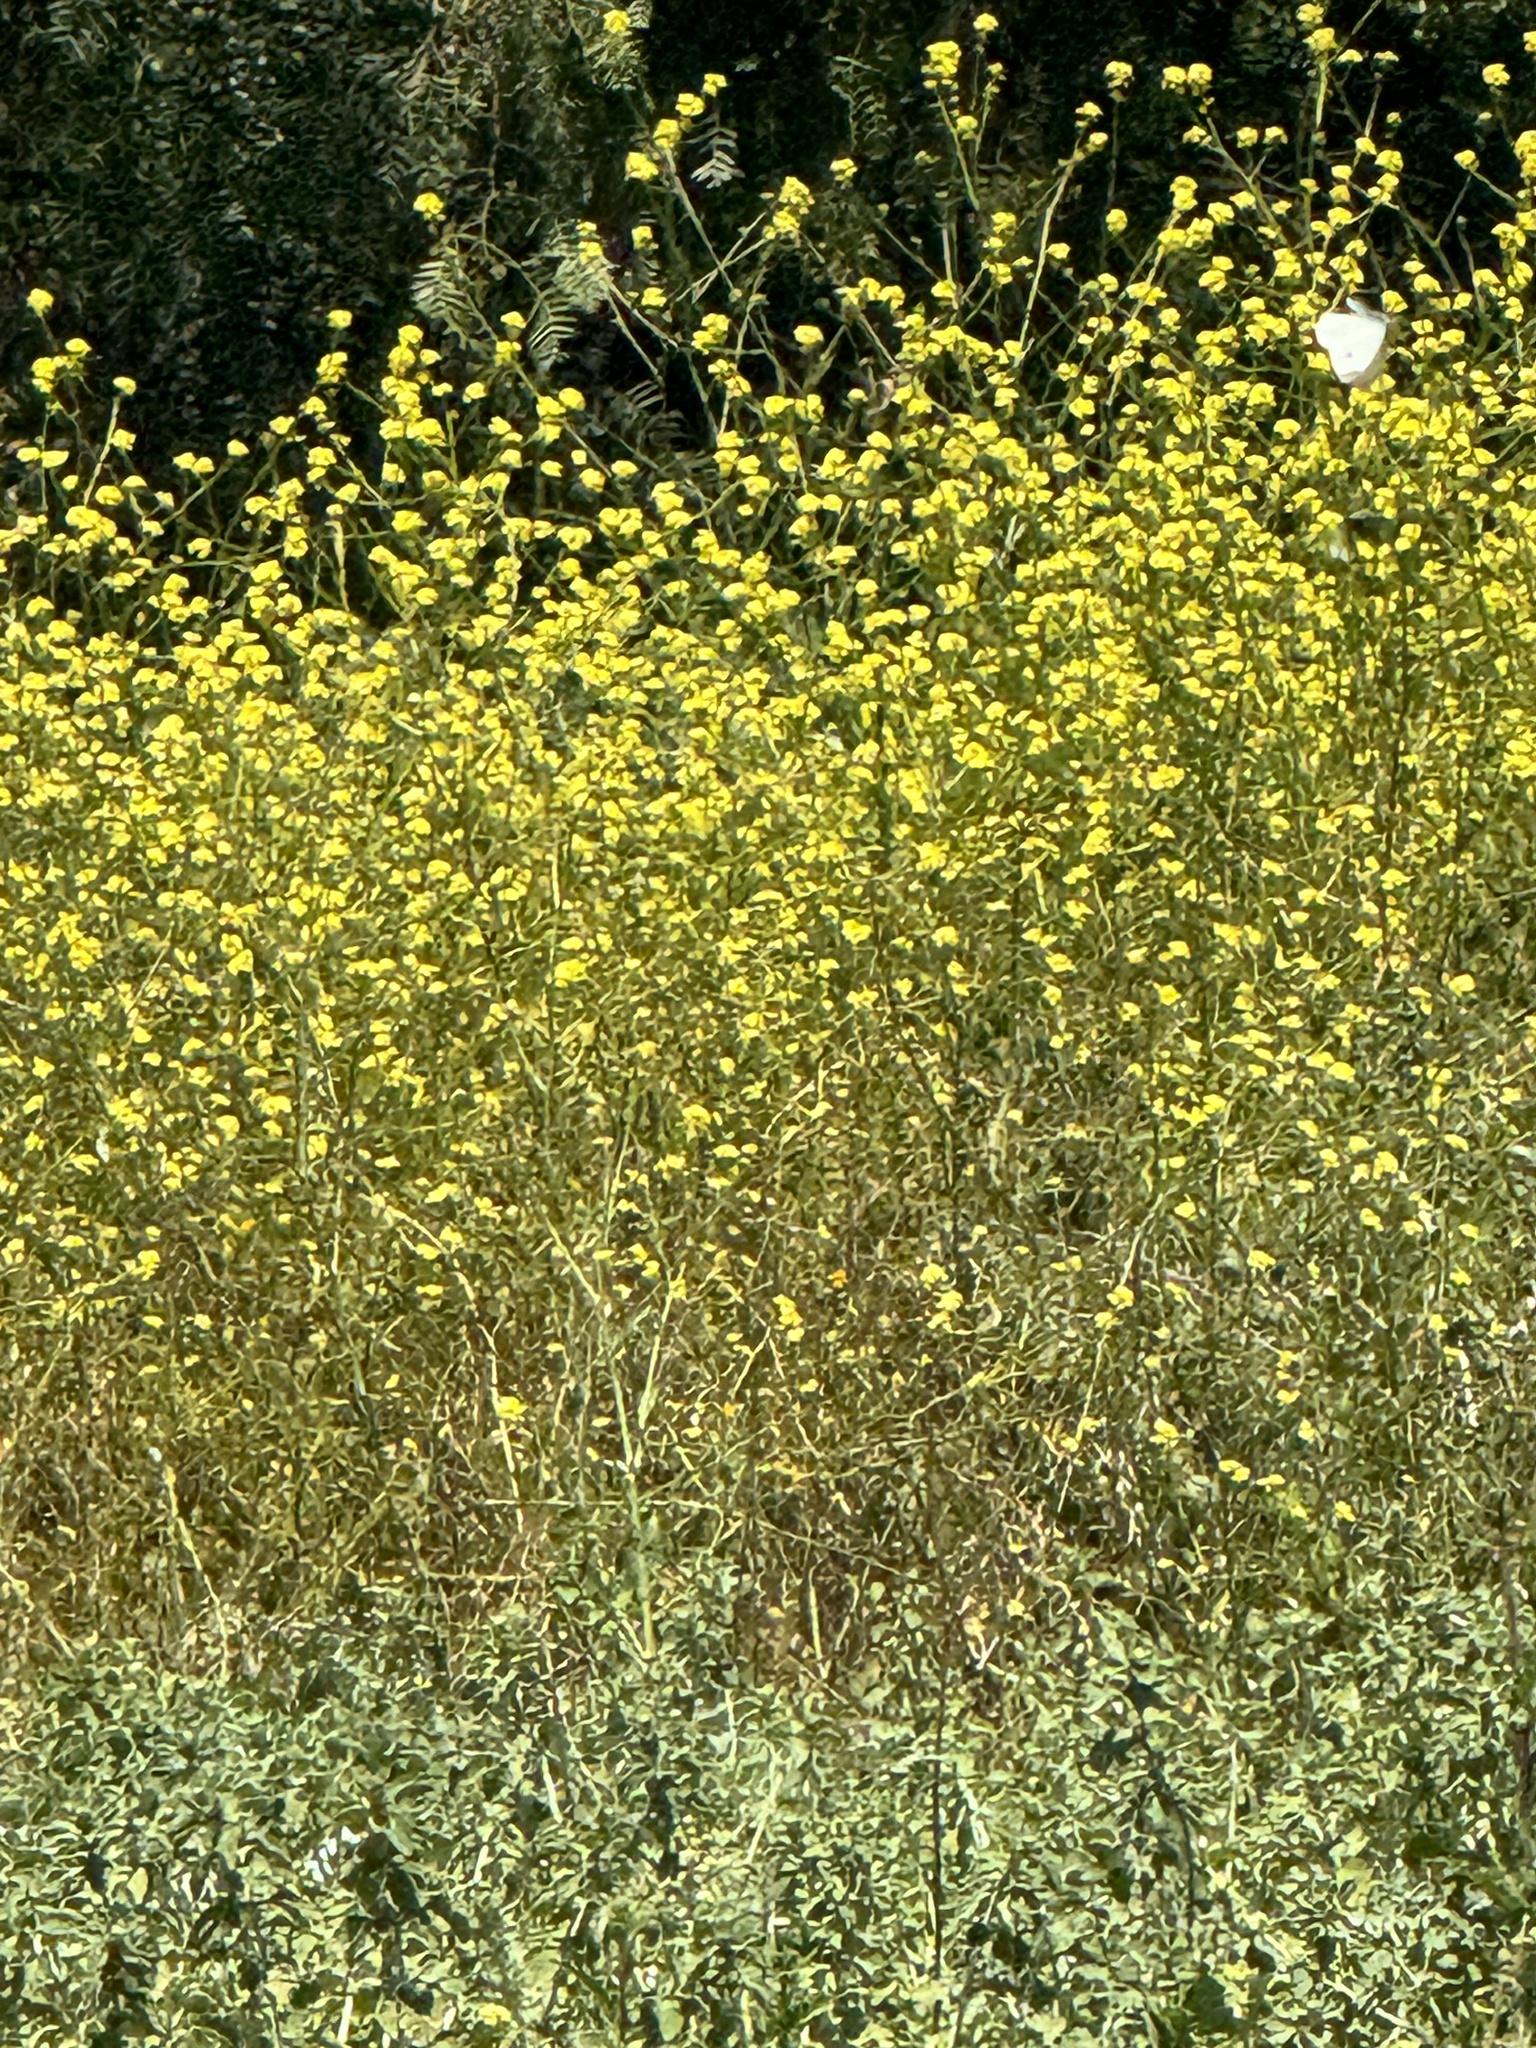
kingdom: Animalia
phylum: Arthropoda
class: Insecta
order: Lepidoptera
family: Pieridae
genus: Pieris
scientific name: Pieris rapae
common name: Small white
